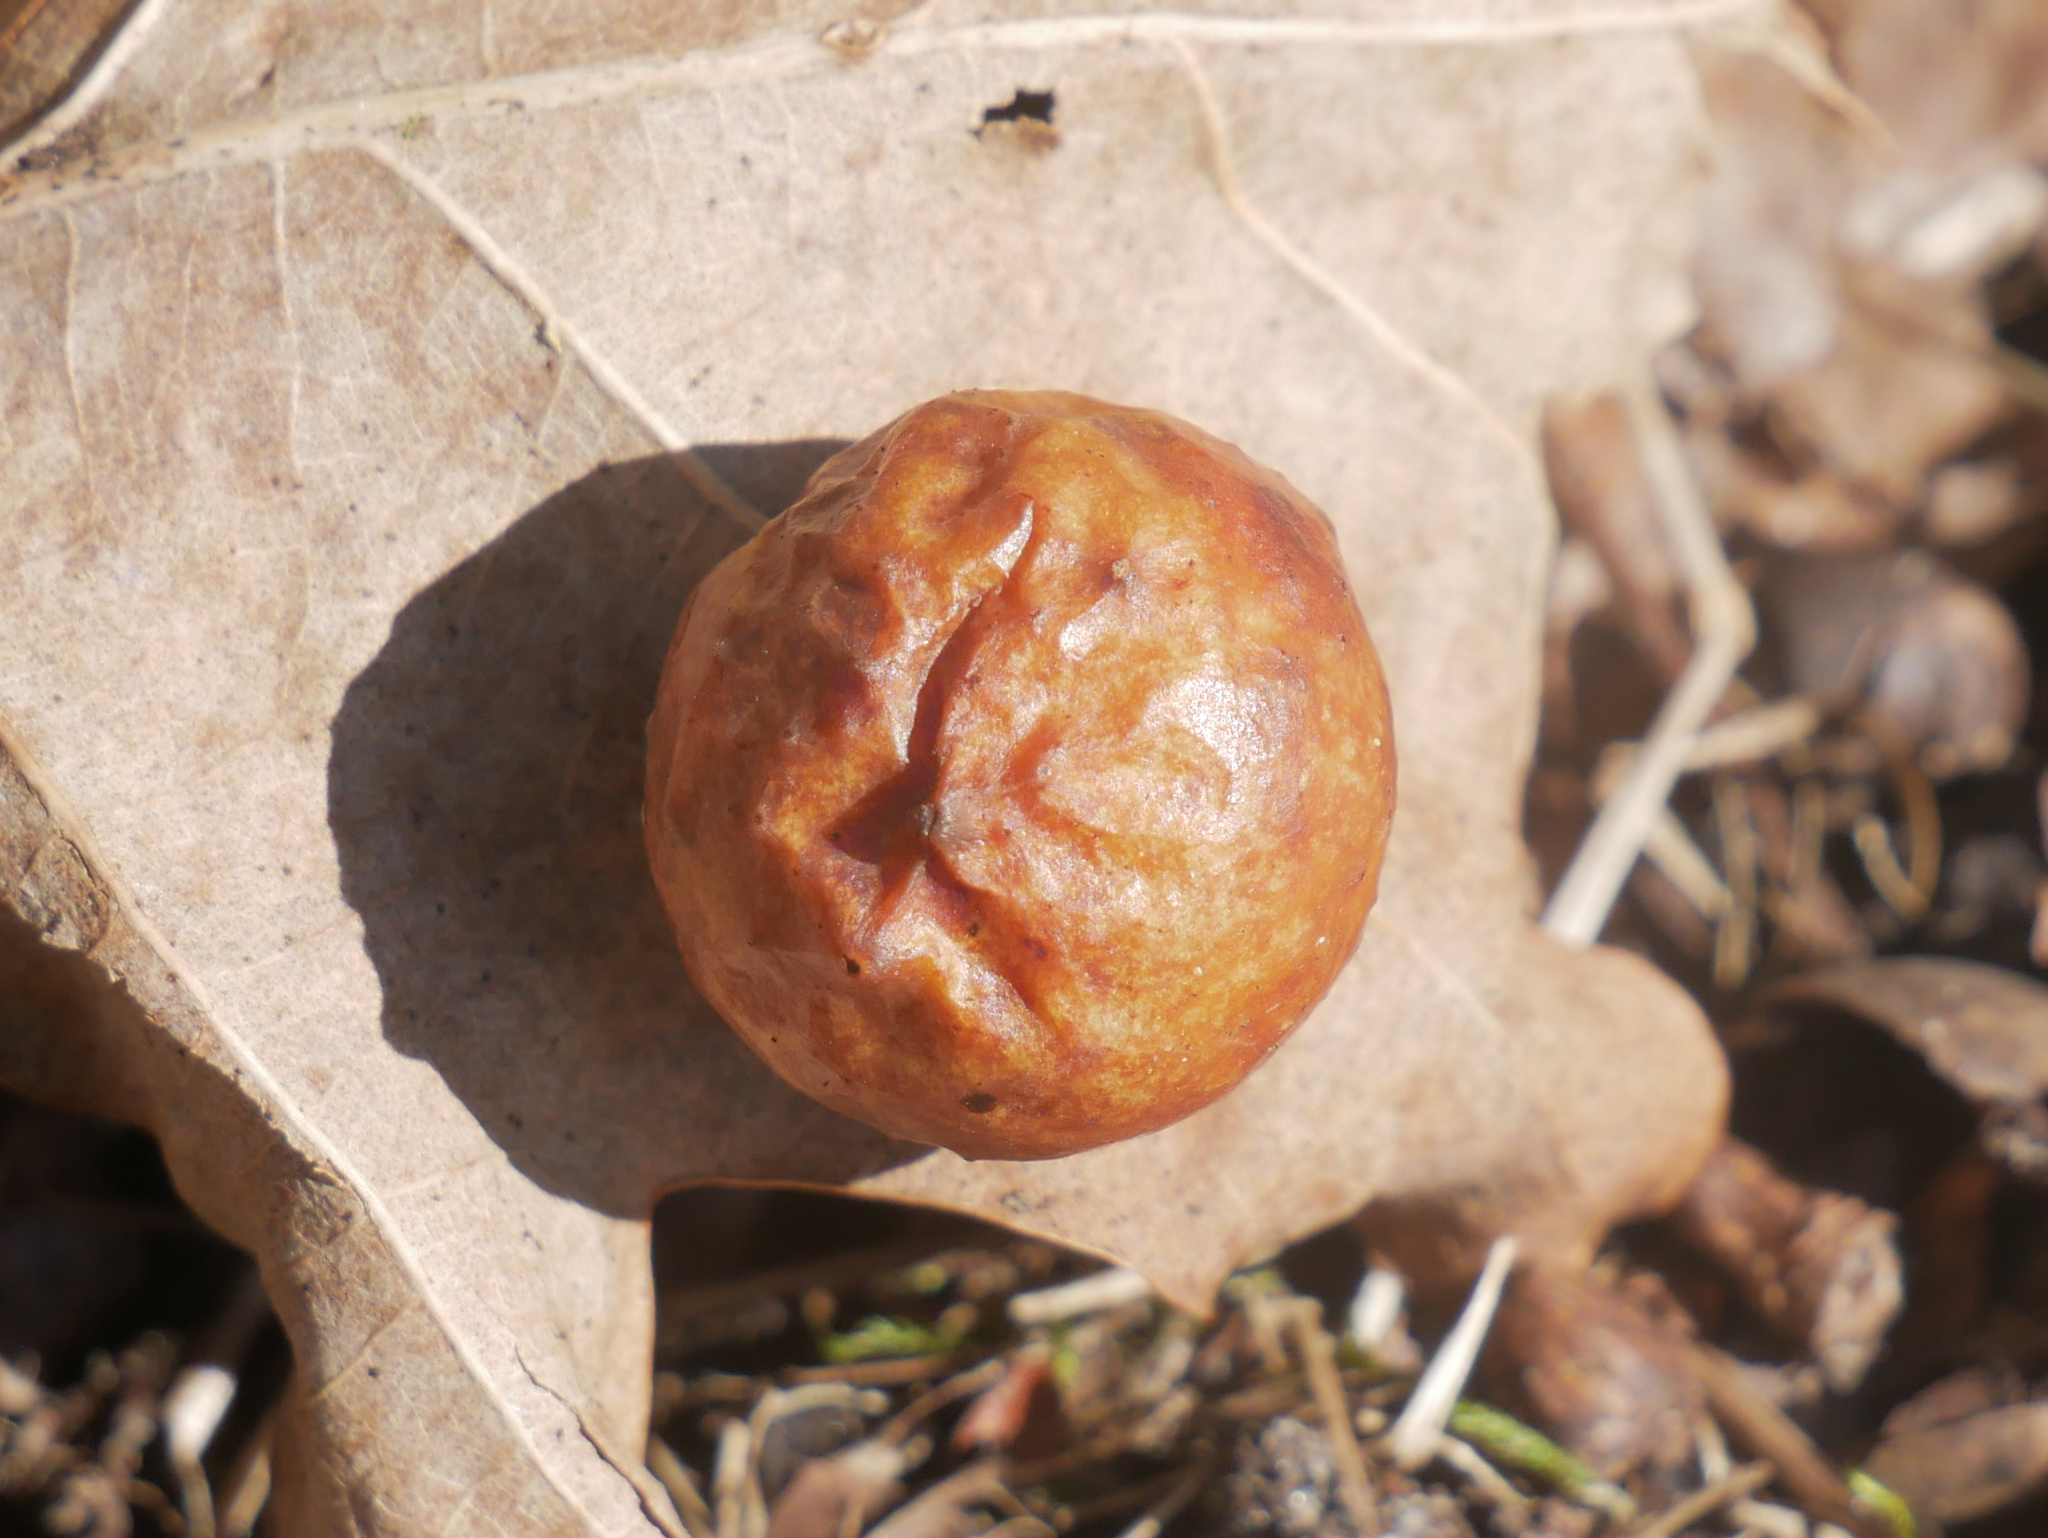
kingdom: Animalia
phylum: Arthropoda
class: Insecta
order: Hymenoptera
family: Cynipidae
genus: Cynips
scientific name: Cynips quercusfolii
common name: Cherry gall
